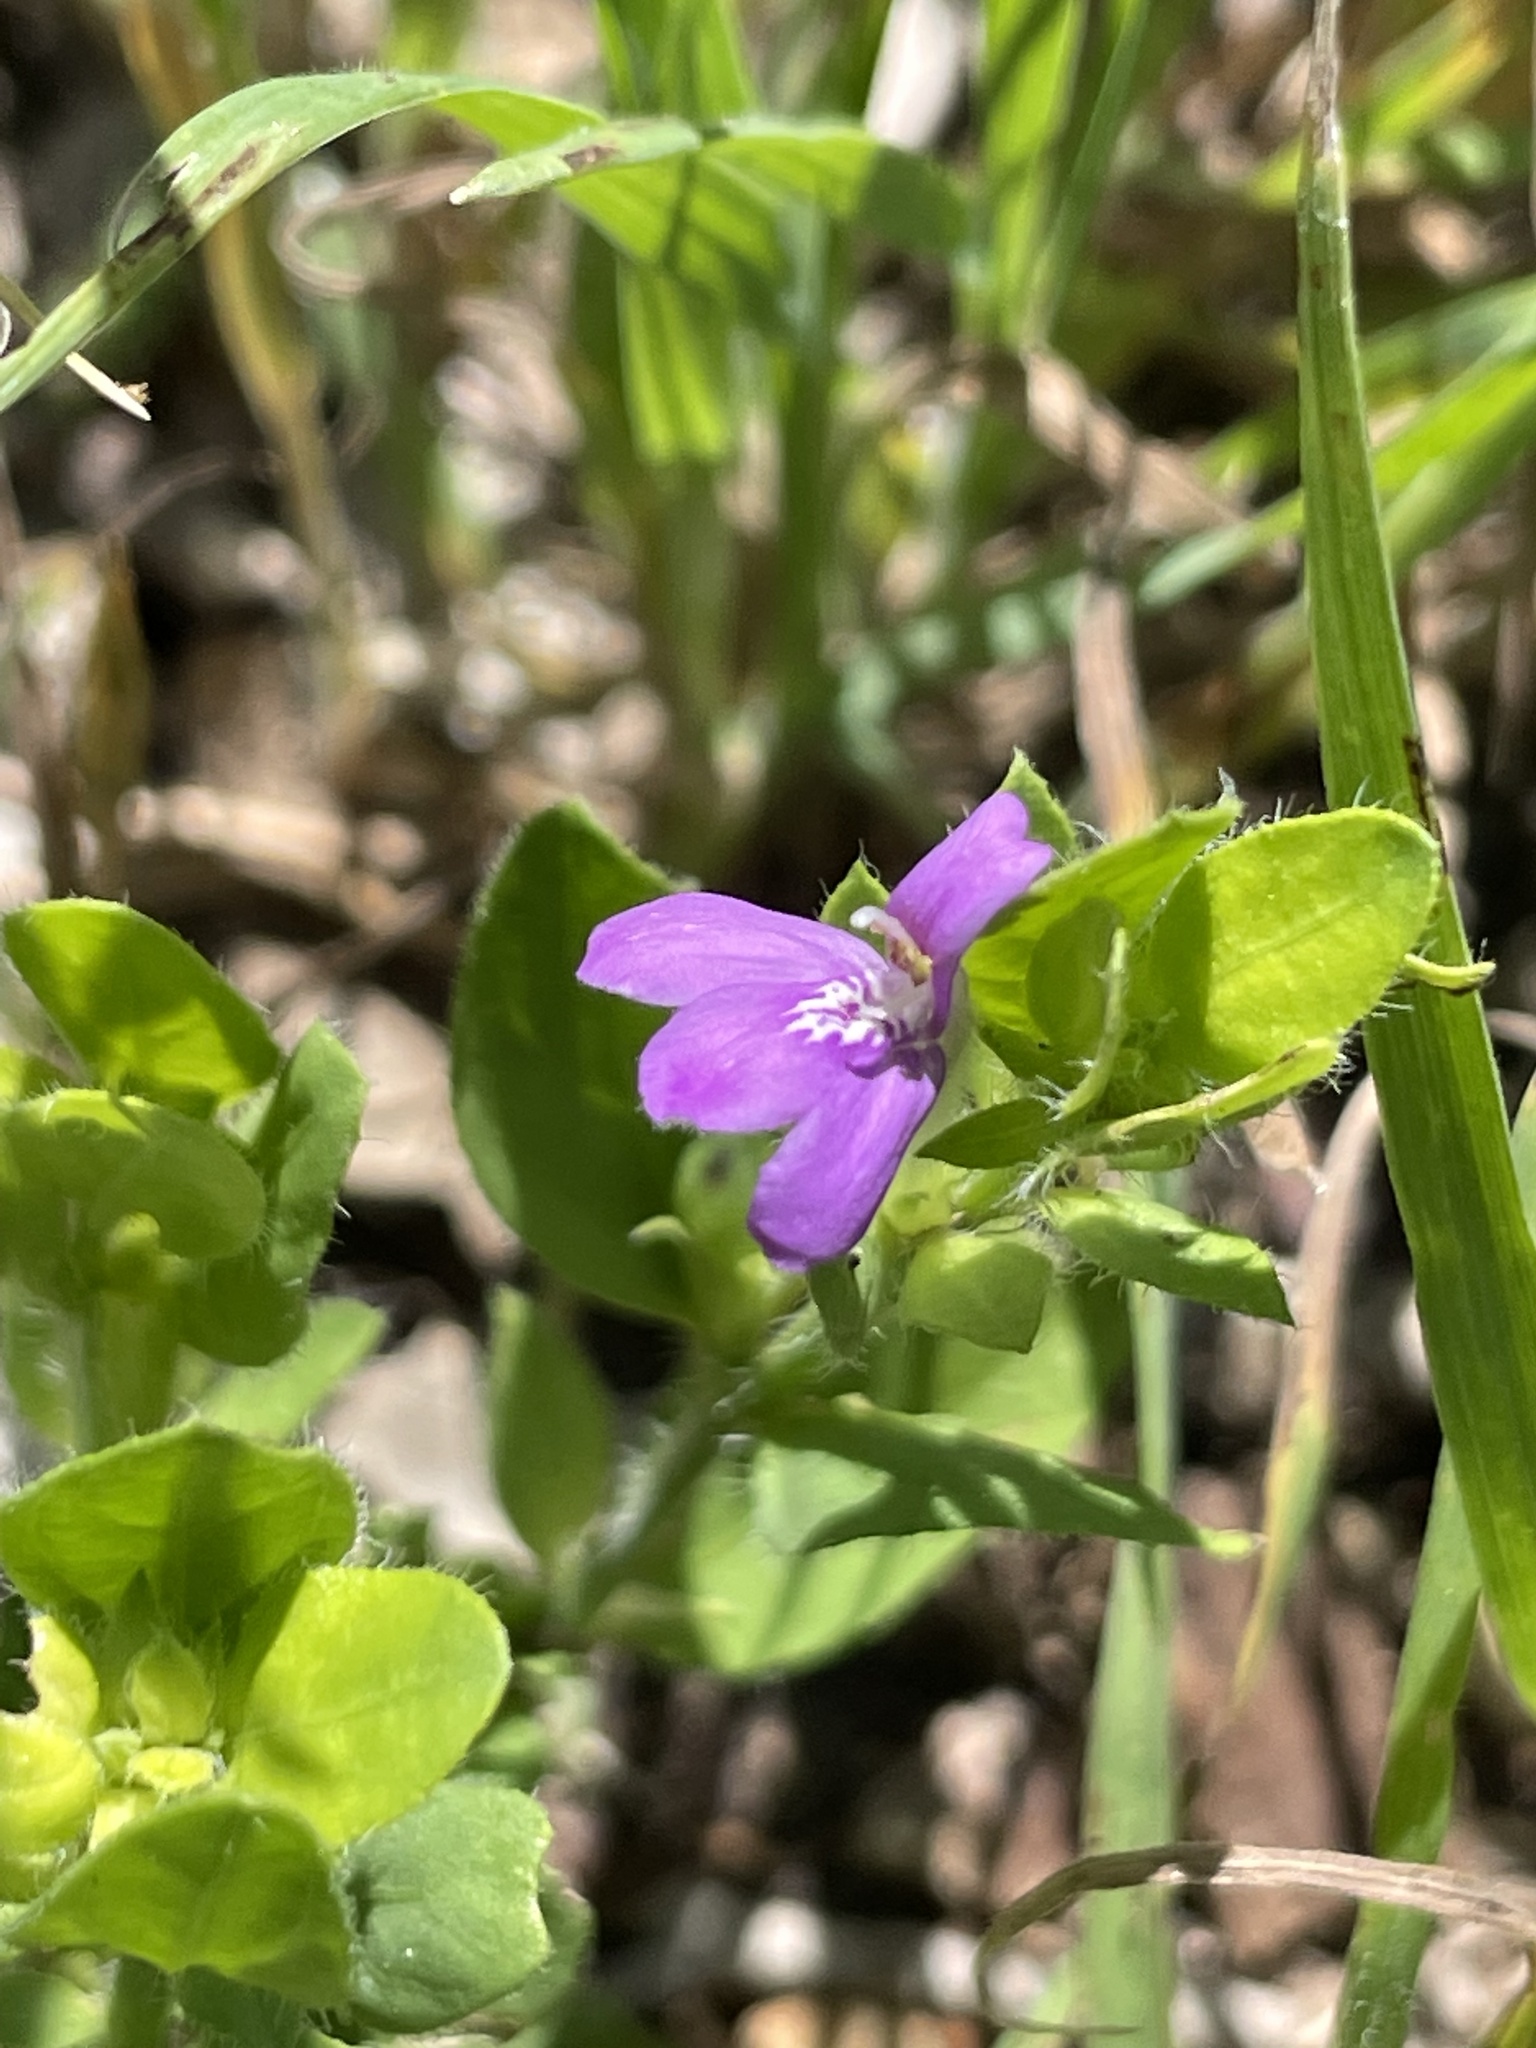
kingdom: Plantae
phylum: Tracheophyta
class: Magnoliopsida
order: Lamiales
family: Acanthaceae
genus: Justicia
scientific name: Justicia pilosella
